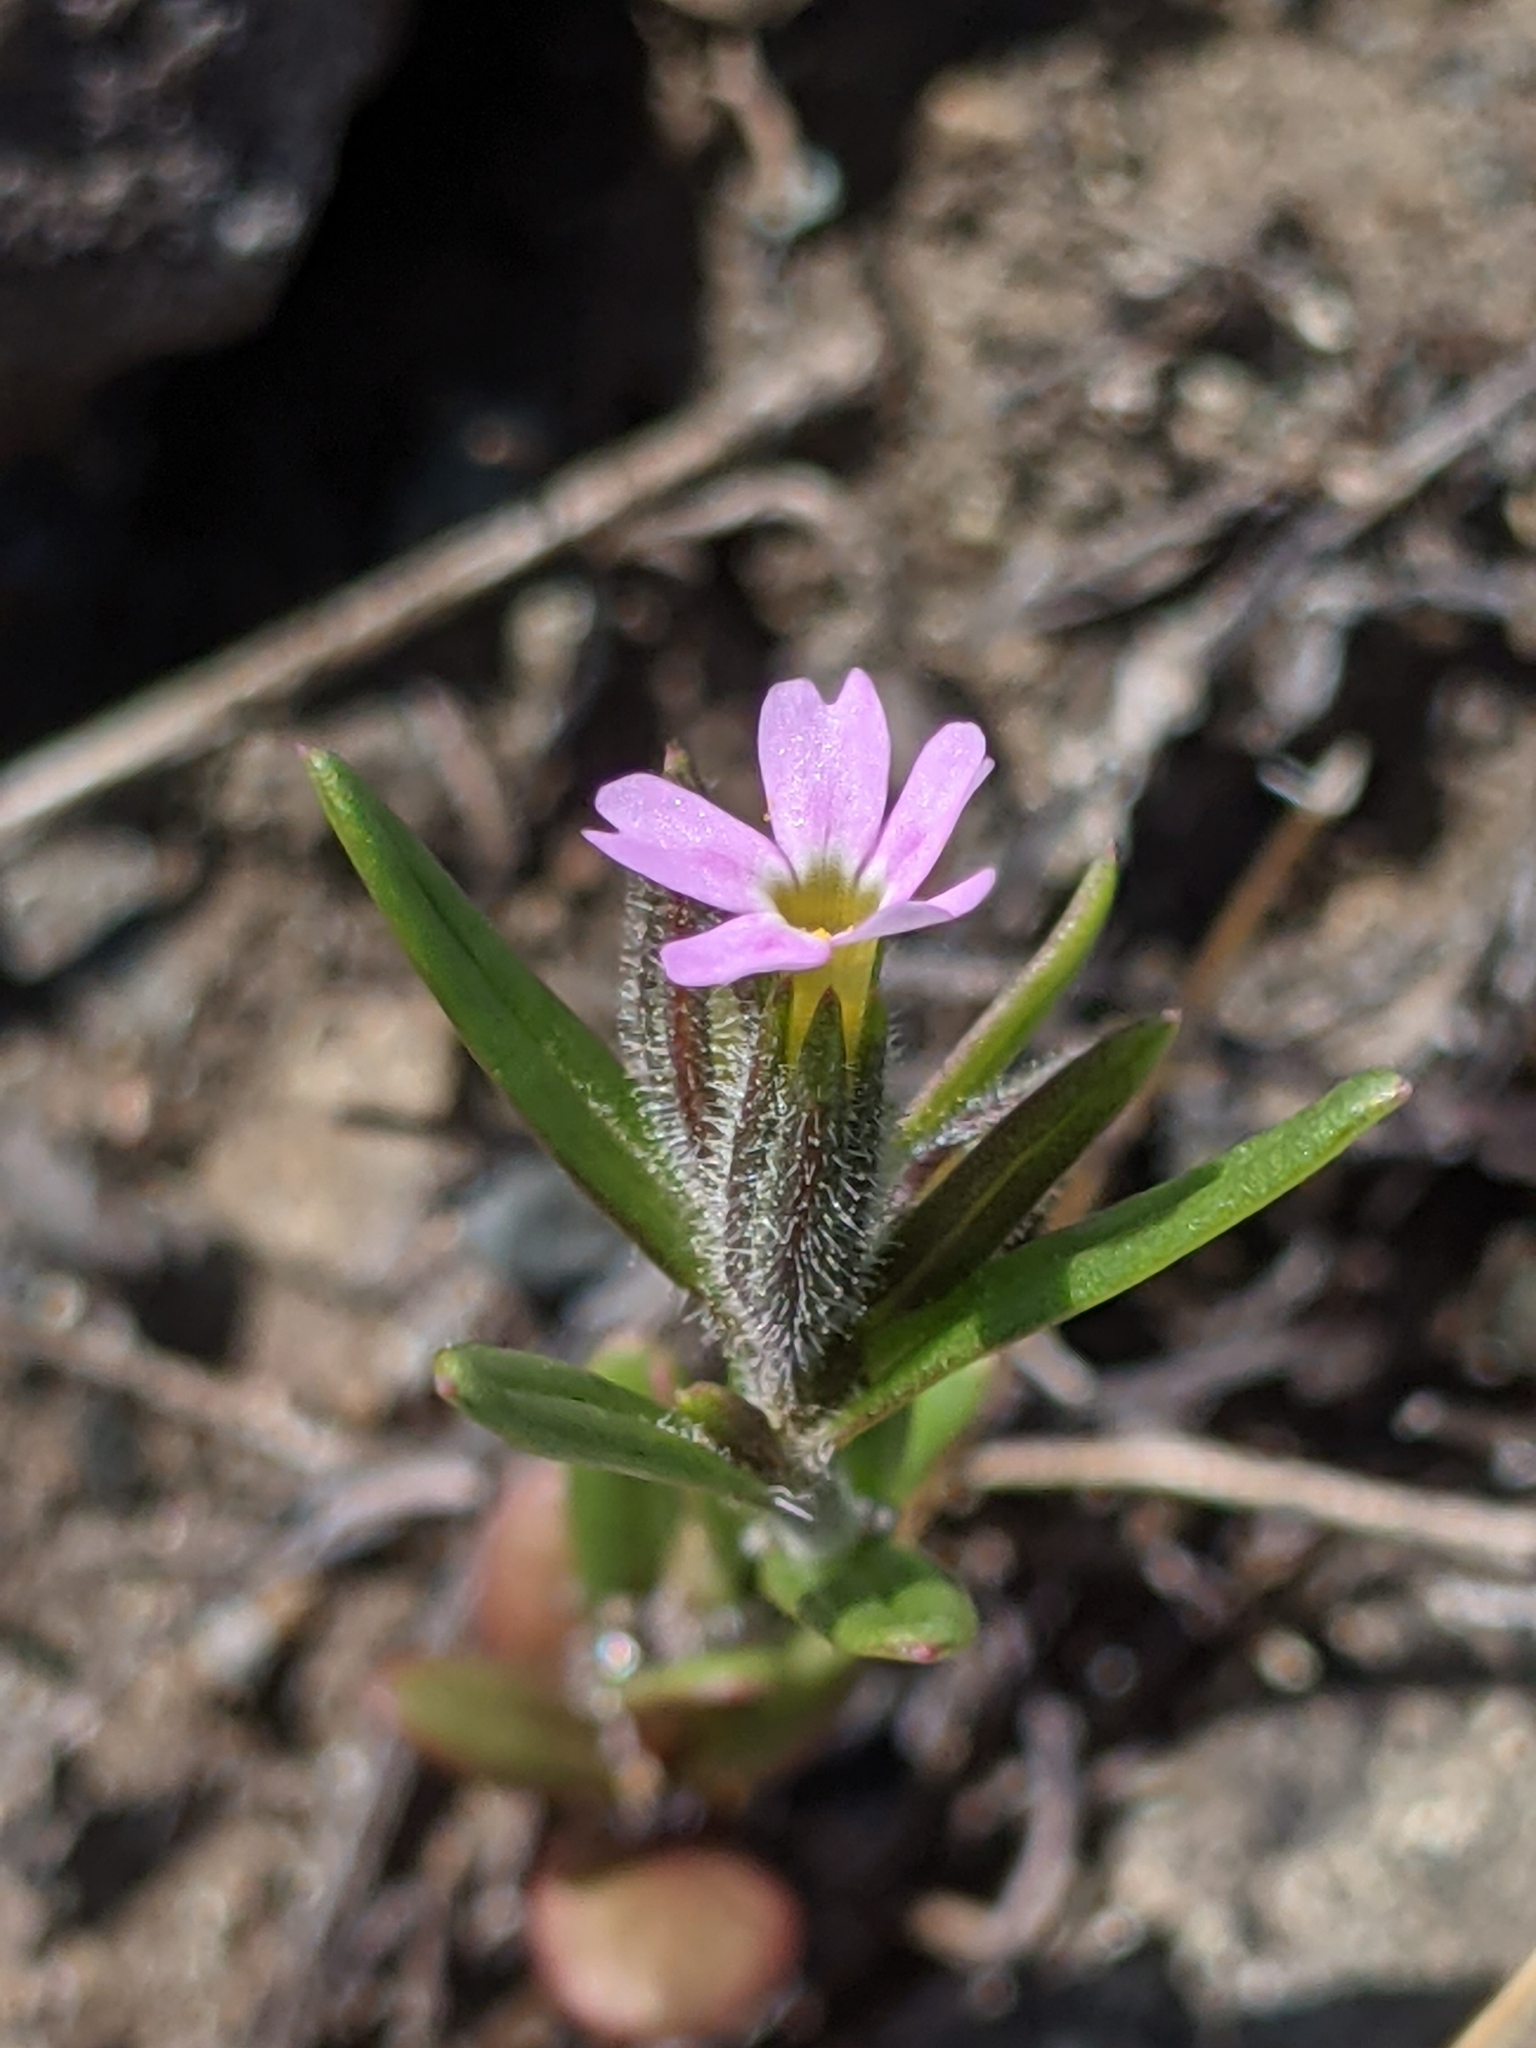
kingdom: Plantae
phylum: Tracheophyta
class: Magnoliopsida
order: Ericales
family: Polemoniaceae
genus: Phlox
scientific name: Phlox gracilis
